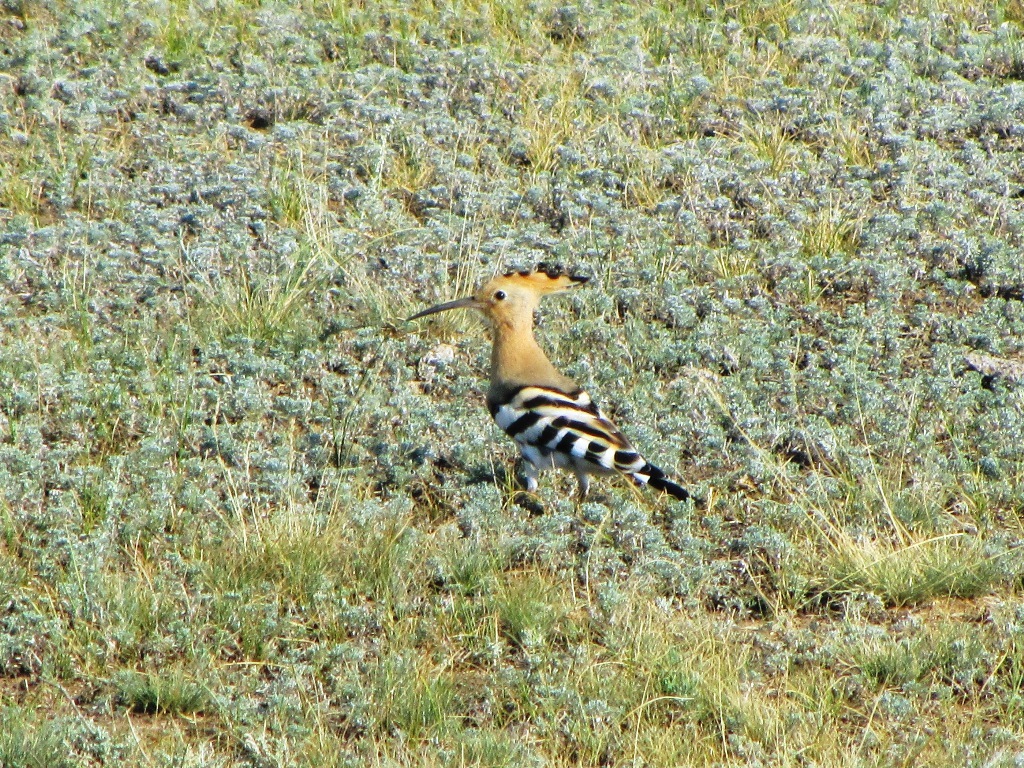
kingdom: Animalia
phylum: Chordata
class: Aves
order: Bucerotiformes
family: Upupidae
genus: Upupa
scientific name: Upupa epops
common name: Eurasian hoopoe
